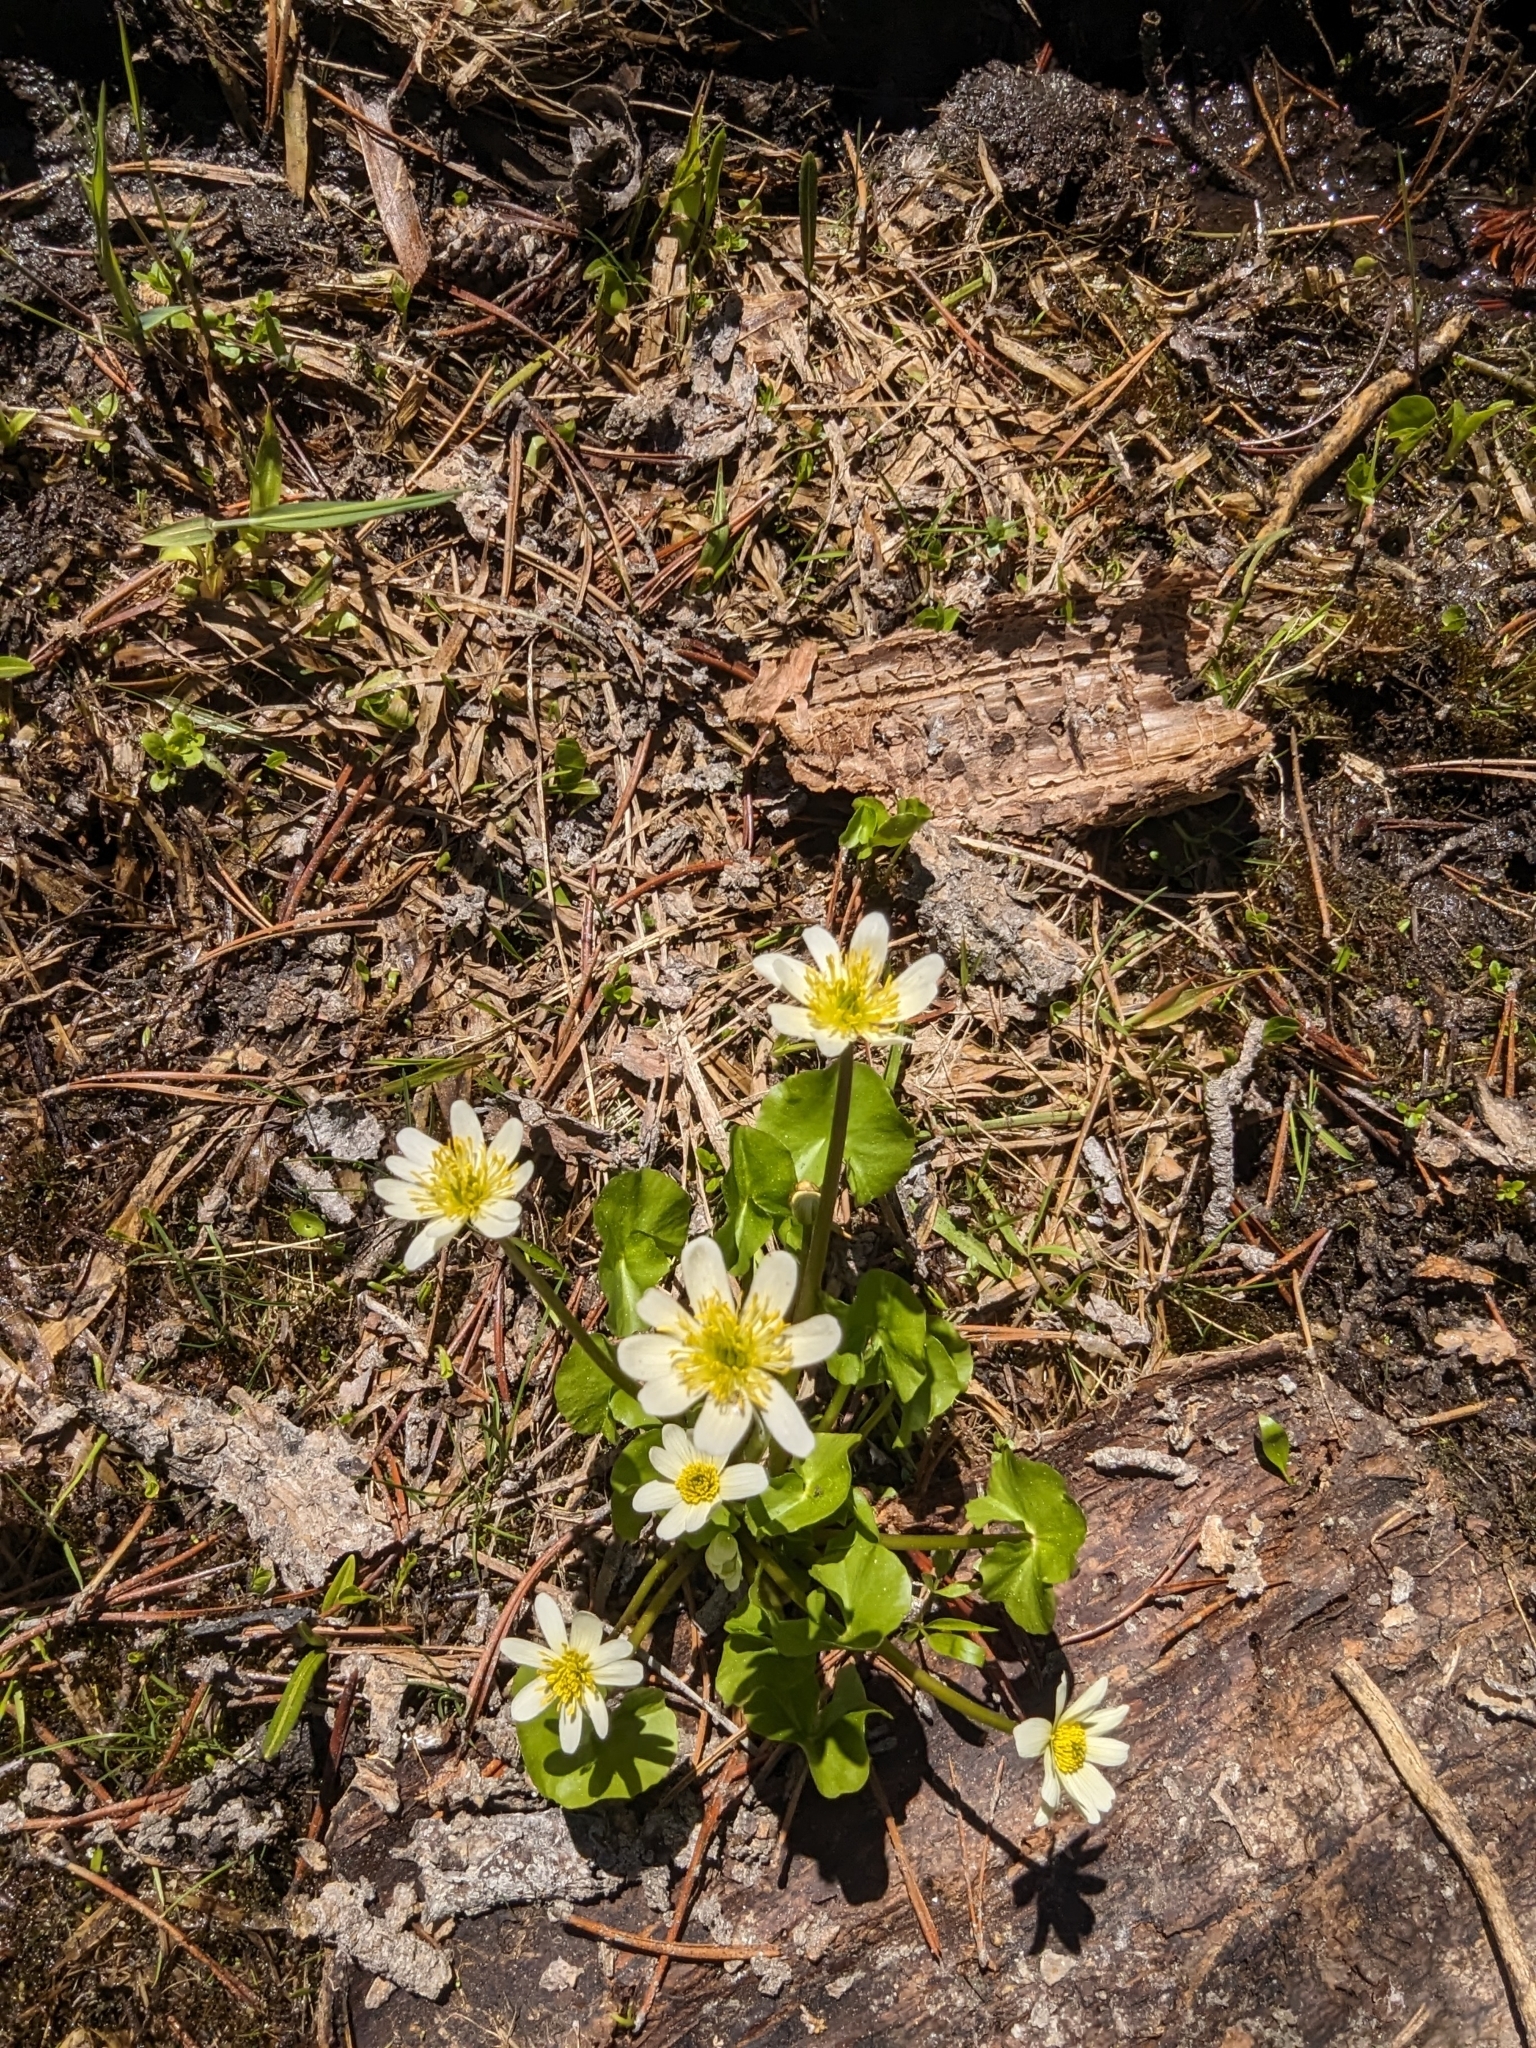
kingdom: Plantae
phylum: Tracheophyta
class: Magnoliopsida
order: Ranunculales
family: Ranunculaceae
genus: Caltha
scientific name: Caltha leptosepala
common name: Elkslip
